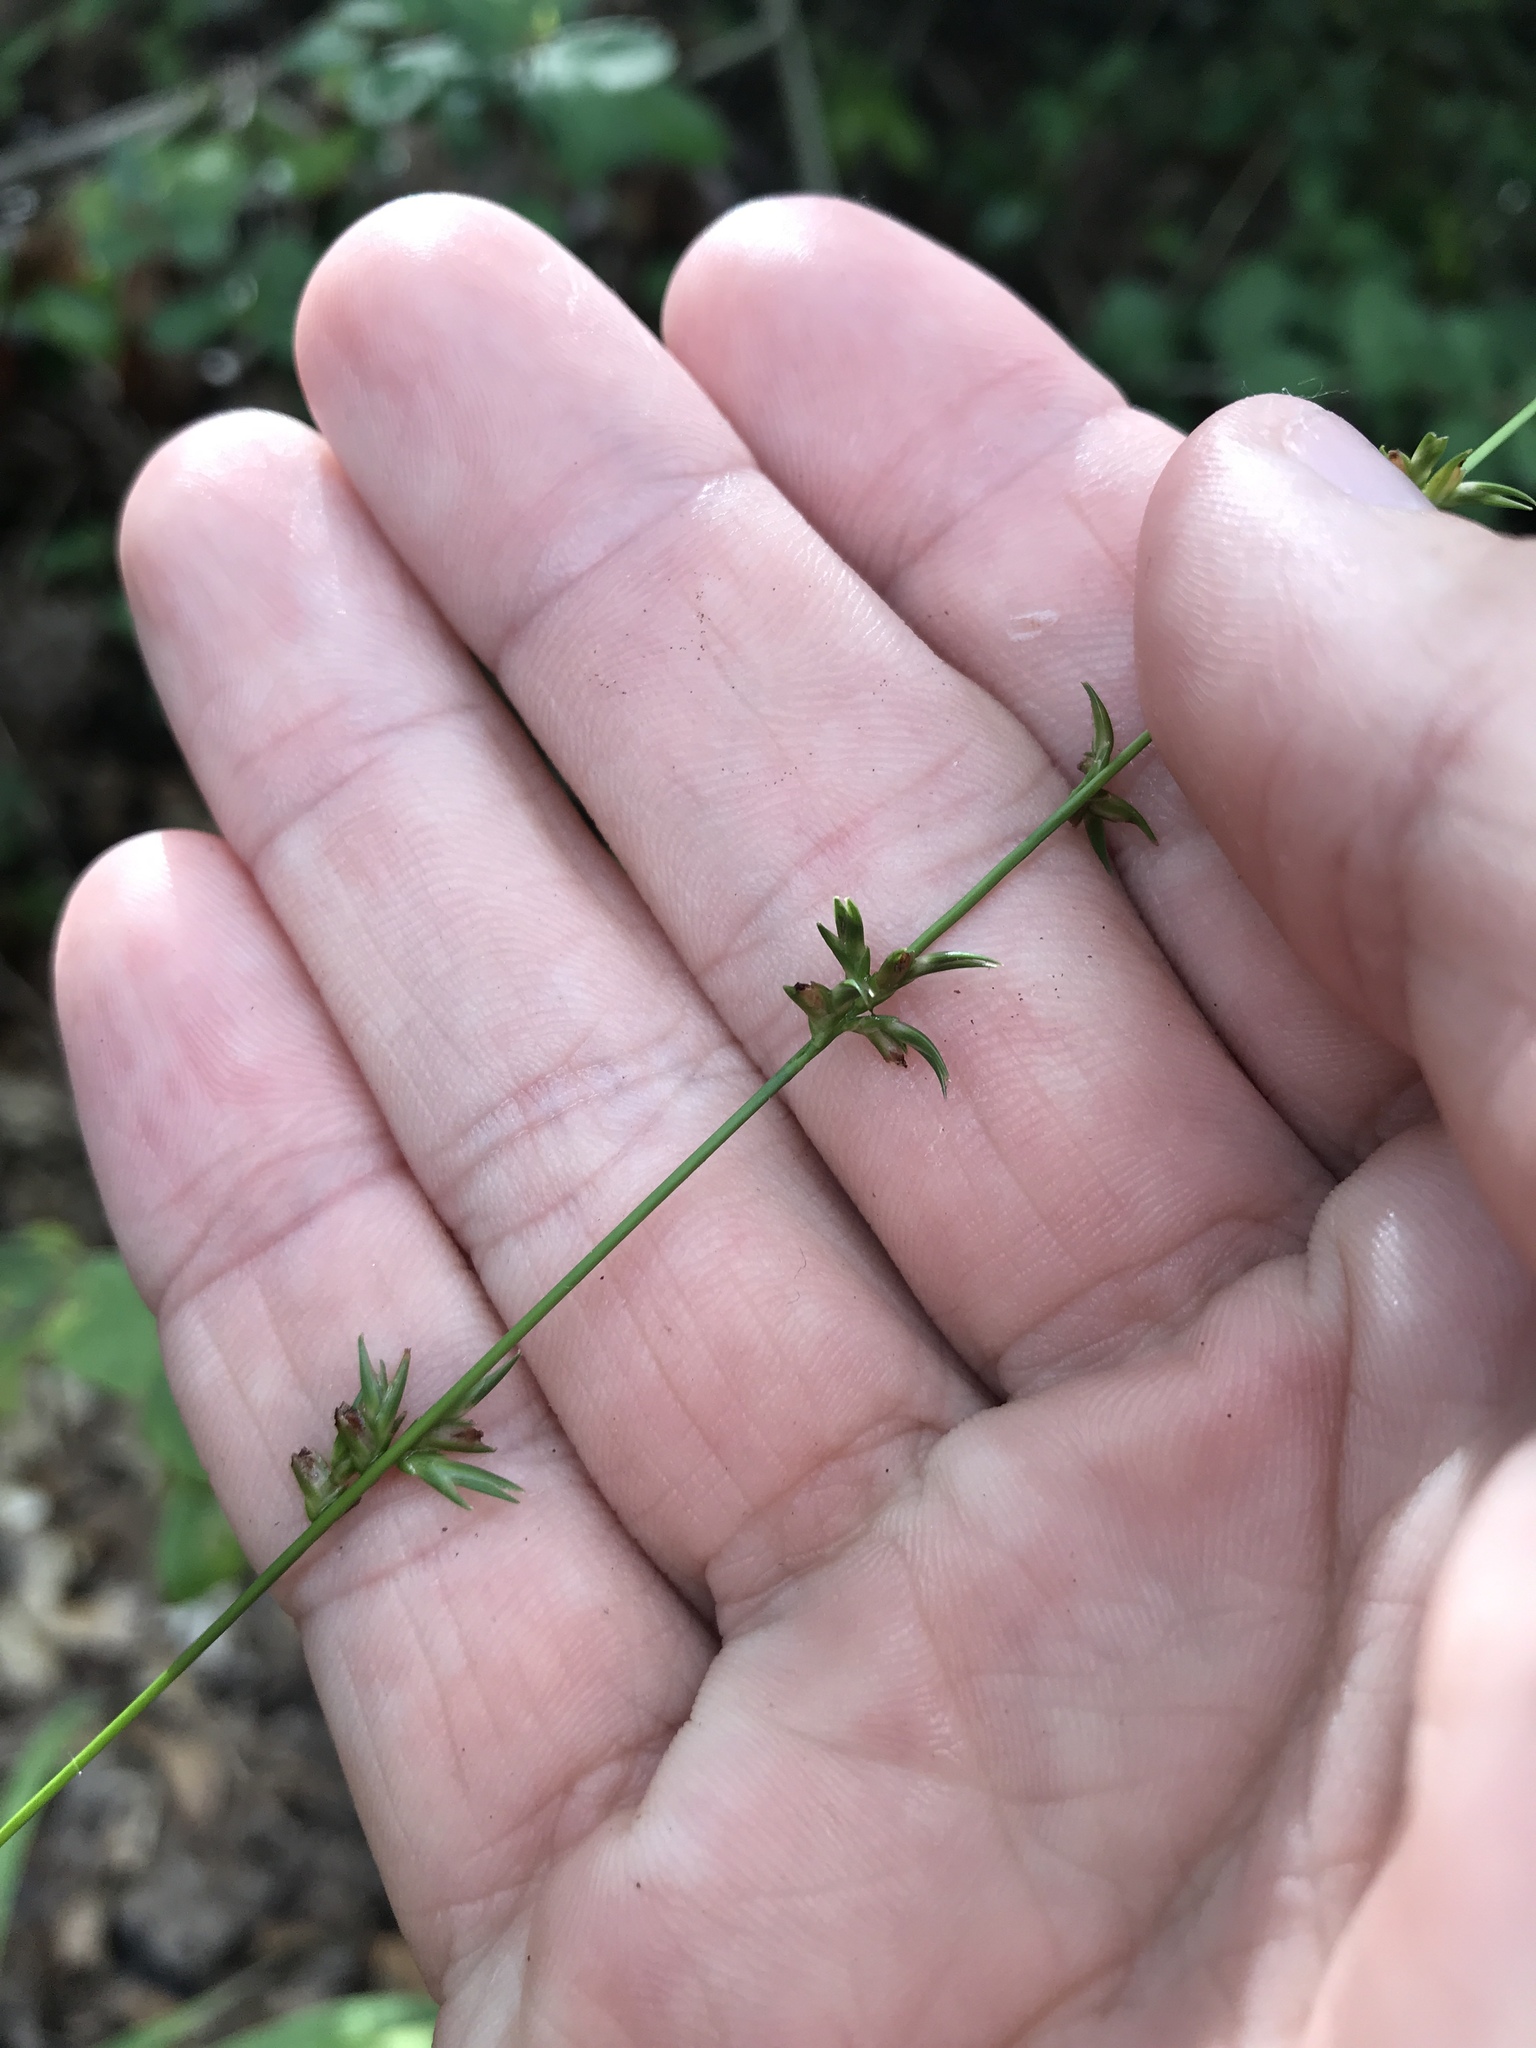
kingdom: Plantae
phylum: Tracheophyta
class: Liliopsida
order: Poales
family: Poaceae
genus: Chasmanthium
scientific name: Chasmanthium laxum
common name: Slender chasmanthium
